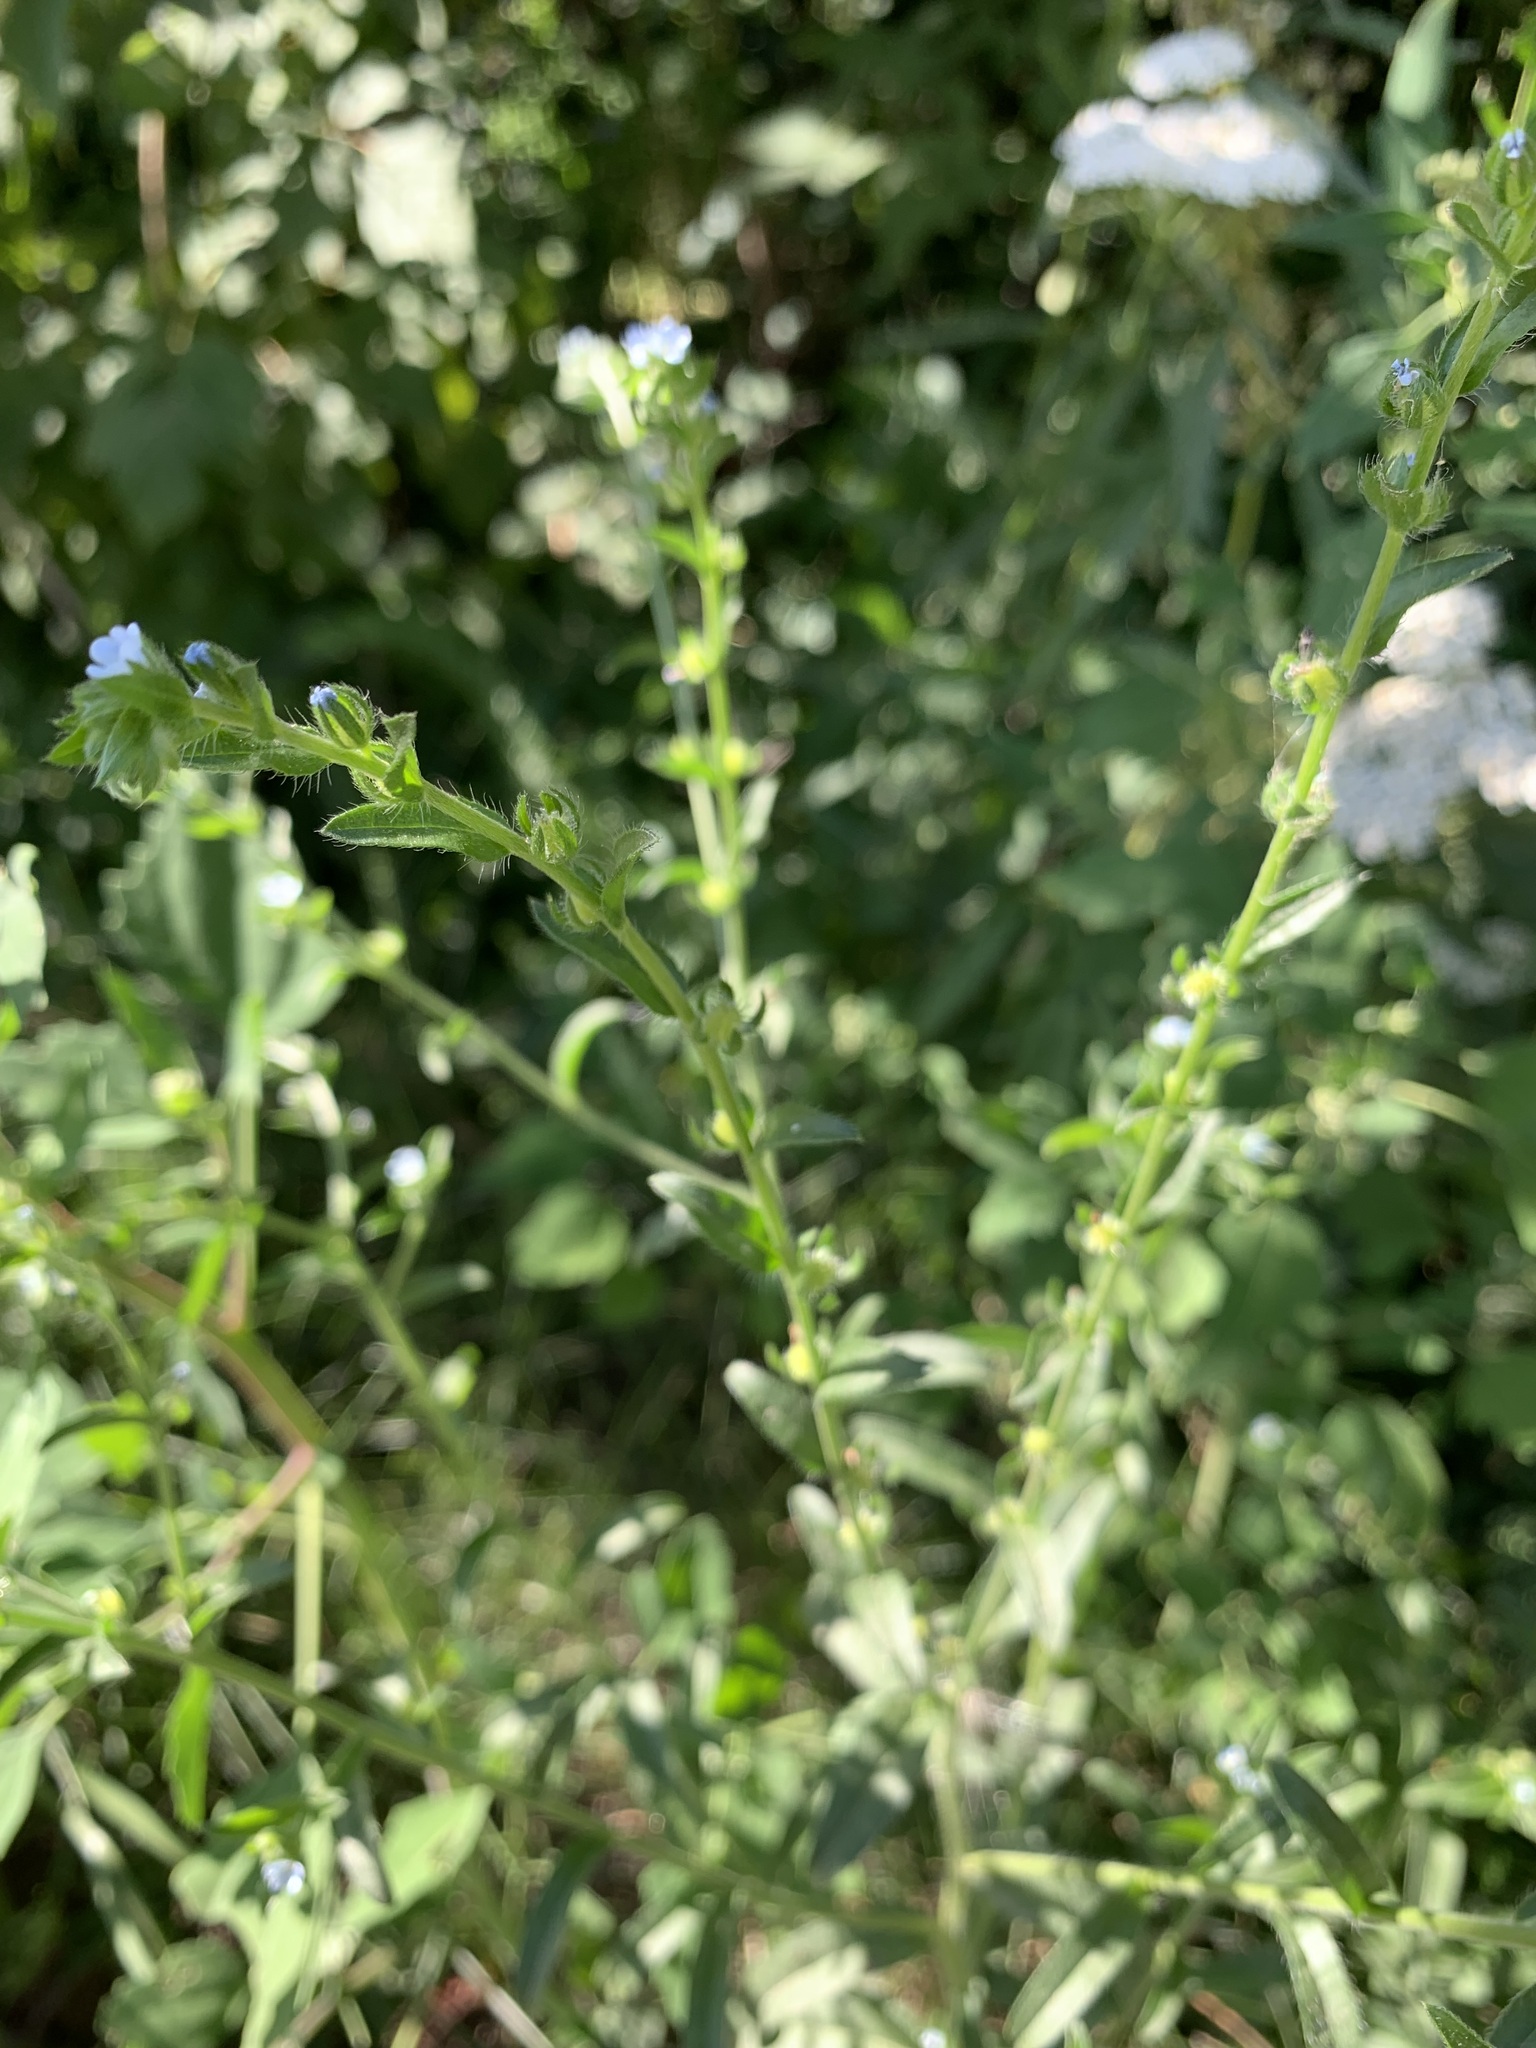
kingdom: Plantae
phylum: Tracheophyta
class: Magnoliopsida
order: Boraginales
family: Boraginaceae
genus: Lappula
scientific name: Lappula squarrosa
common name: European stickseed
